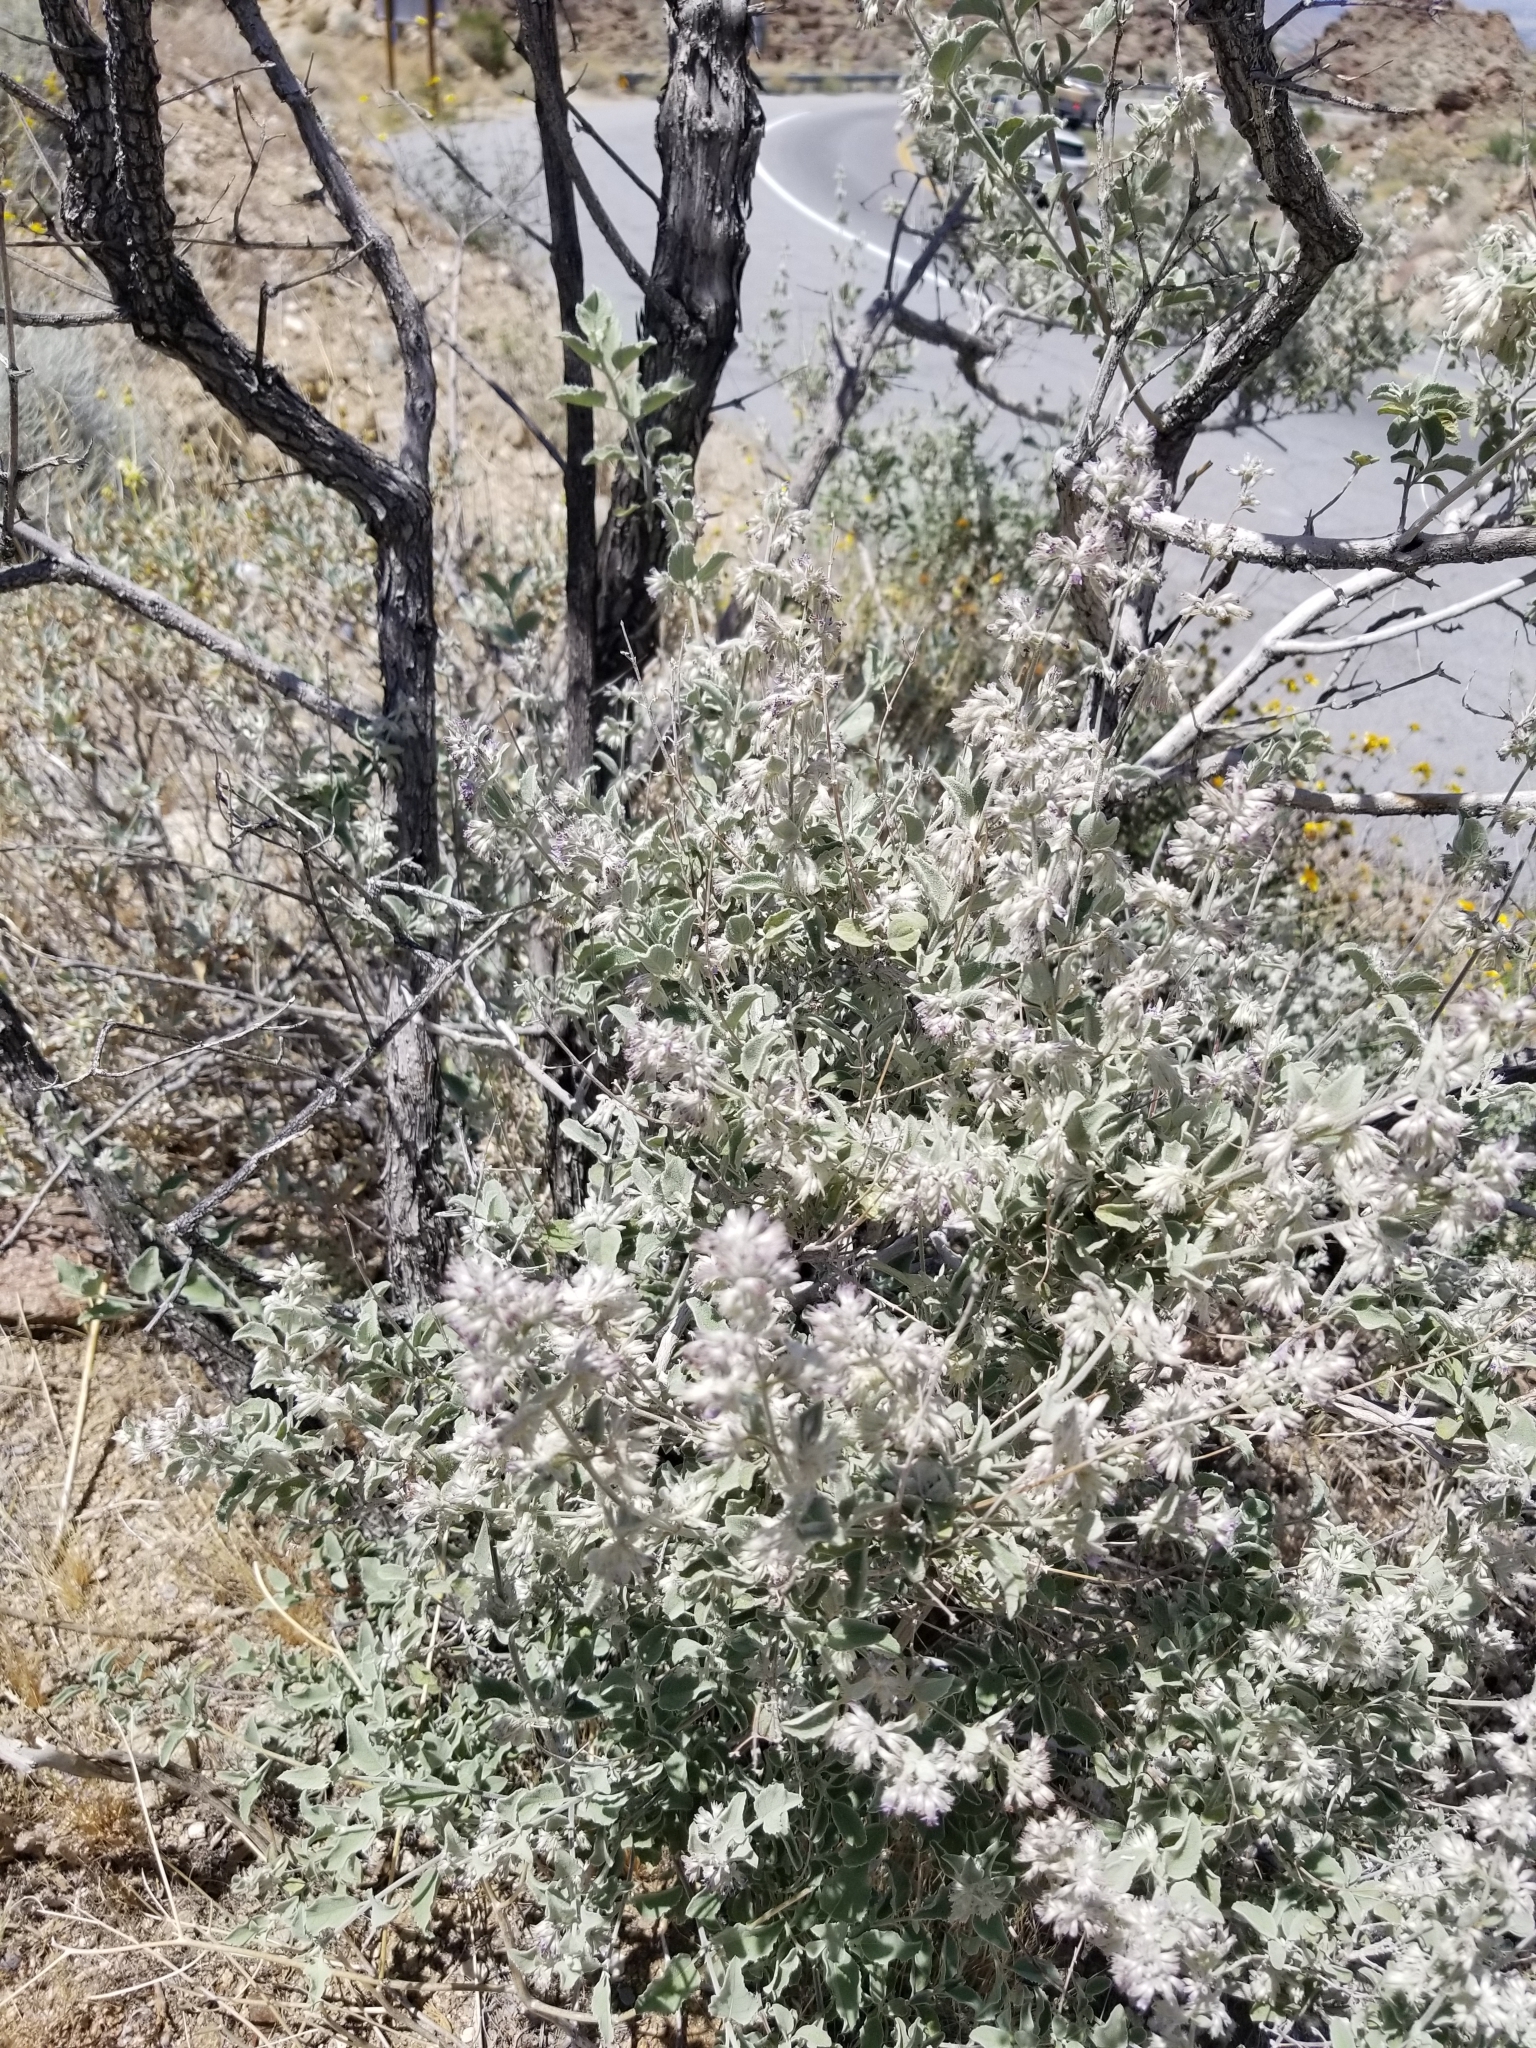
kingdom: Plantae
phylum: Tracheophyta
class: Magnoliopsida
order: Lamiales
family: Lamiaceae
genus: Condea
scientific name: Condea emoryi
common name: Chia
